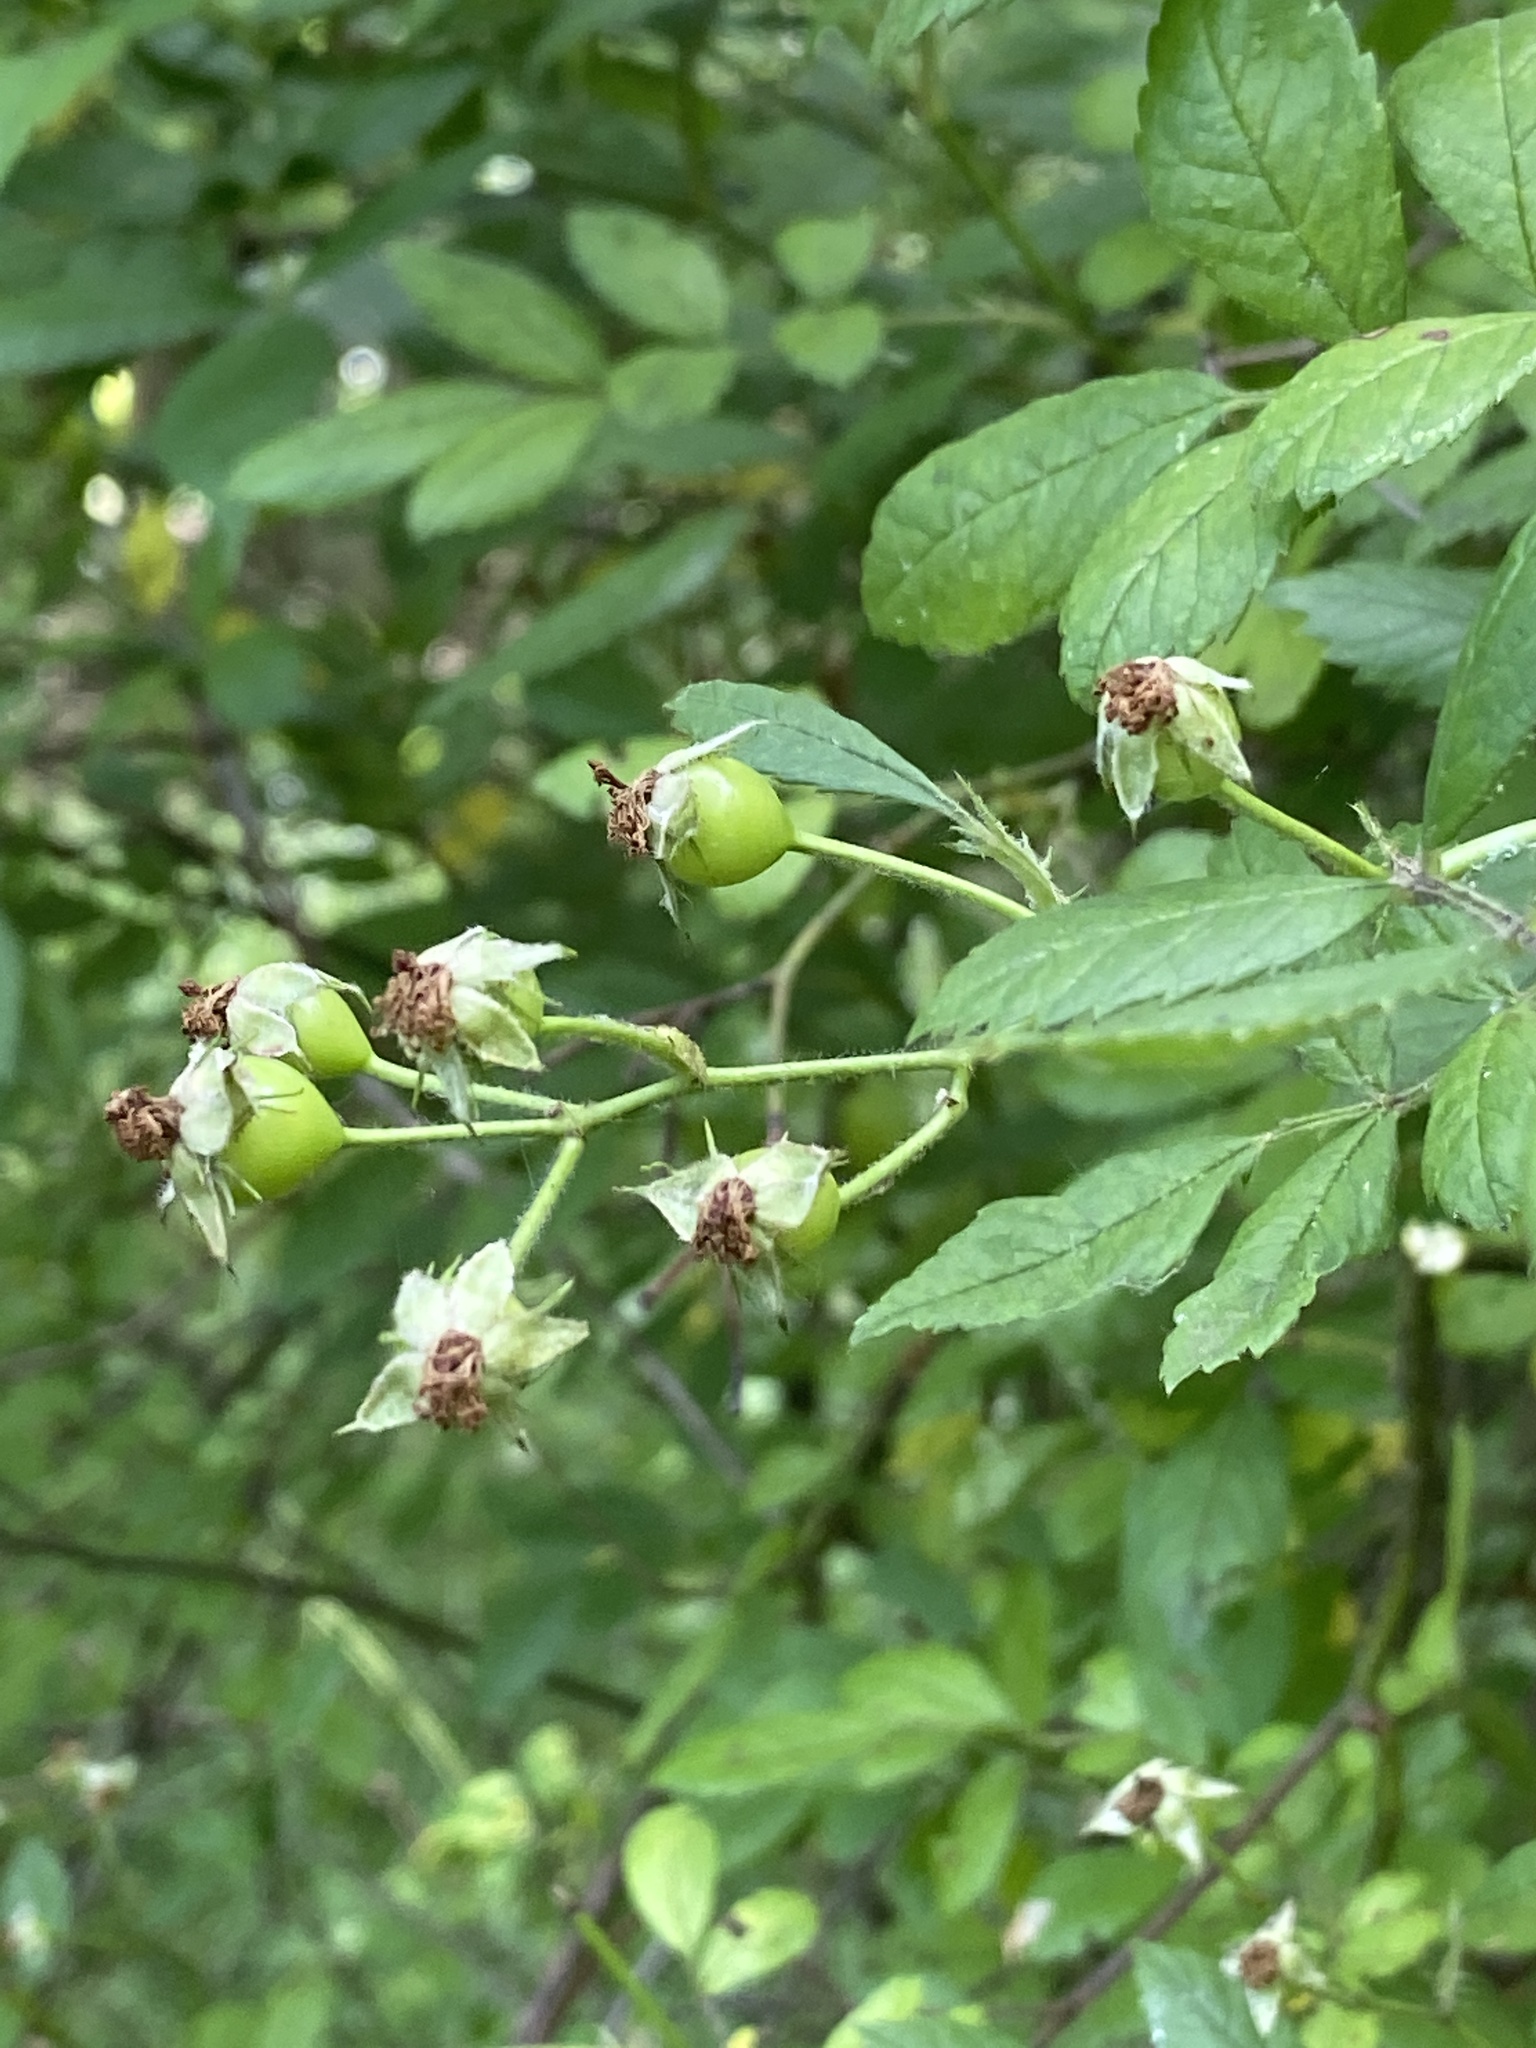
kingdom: Plantae
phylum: Tracheophyta
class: Magnoliopsida
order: Rosales
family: Rosaceae
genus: Rosa
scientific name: Rosa multiflora
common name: Multiflora rose
